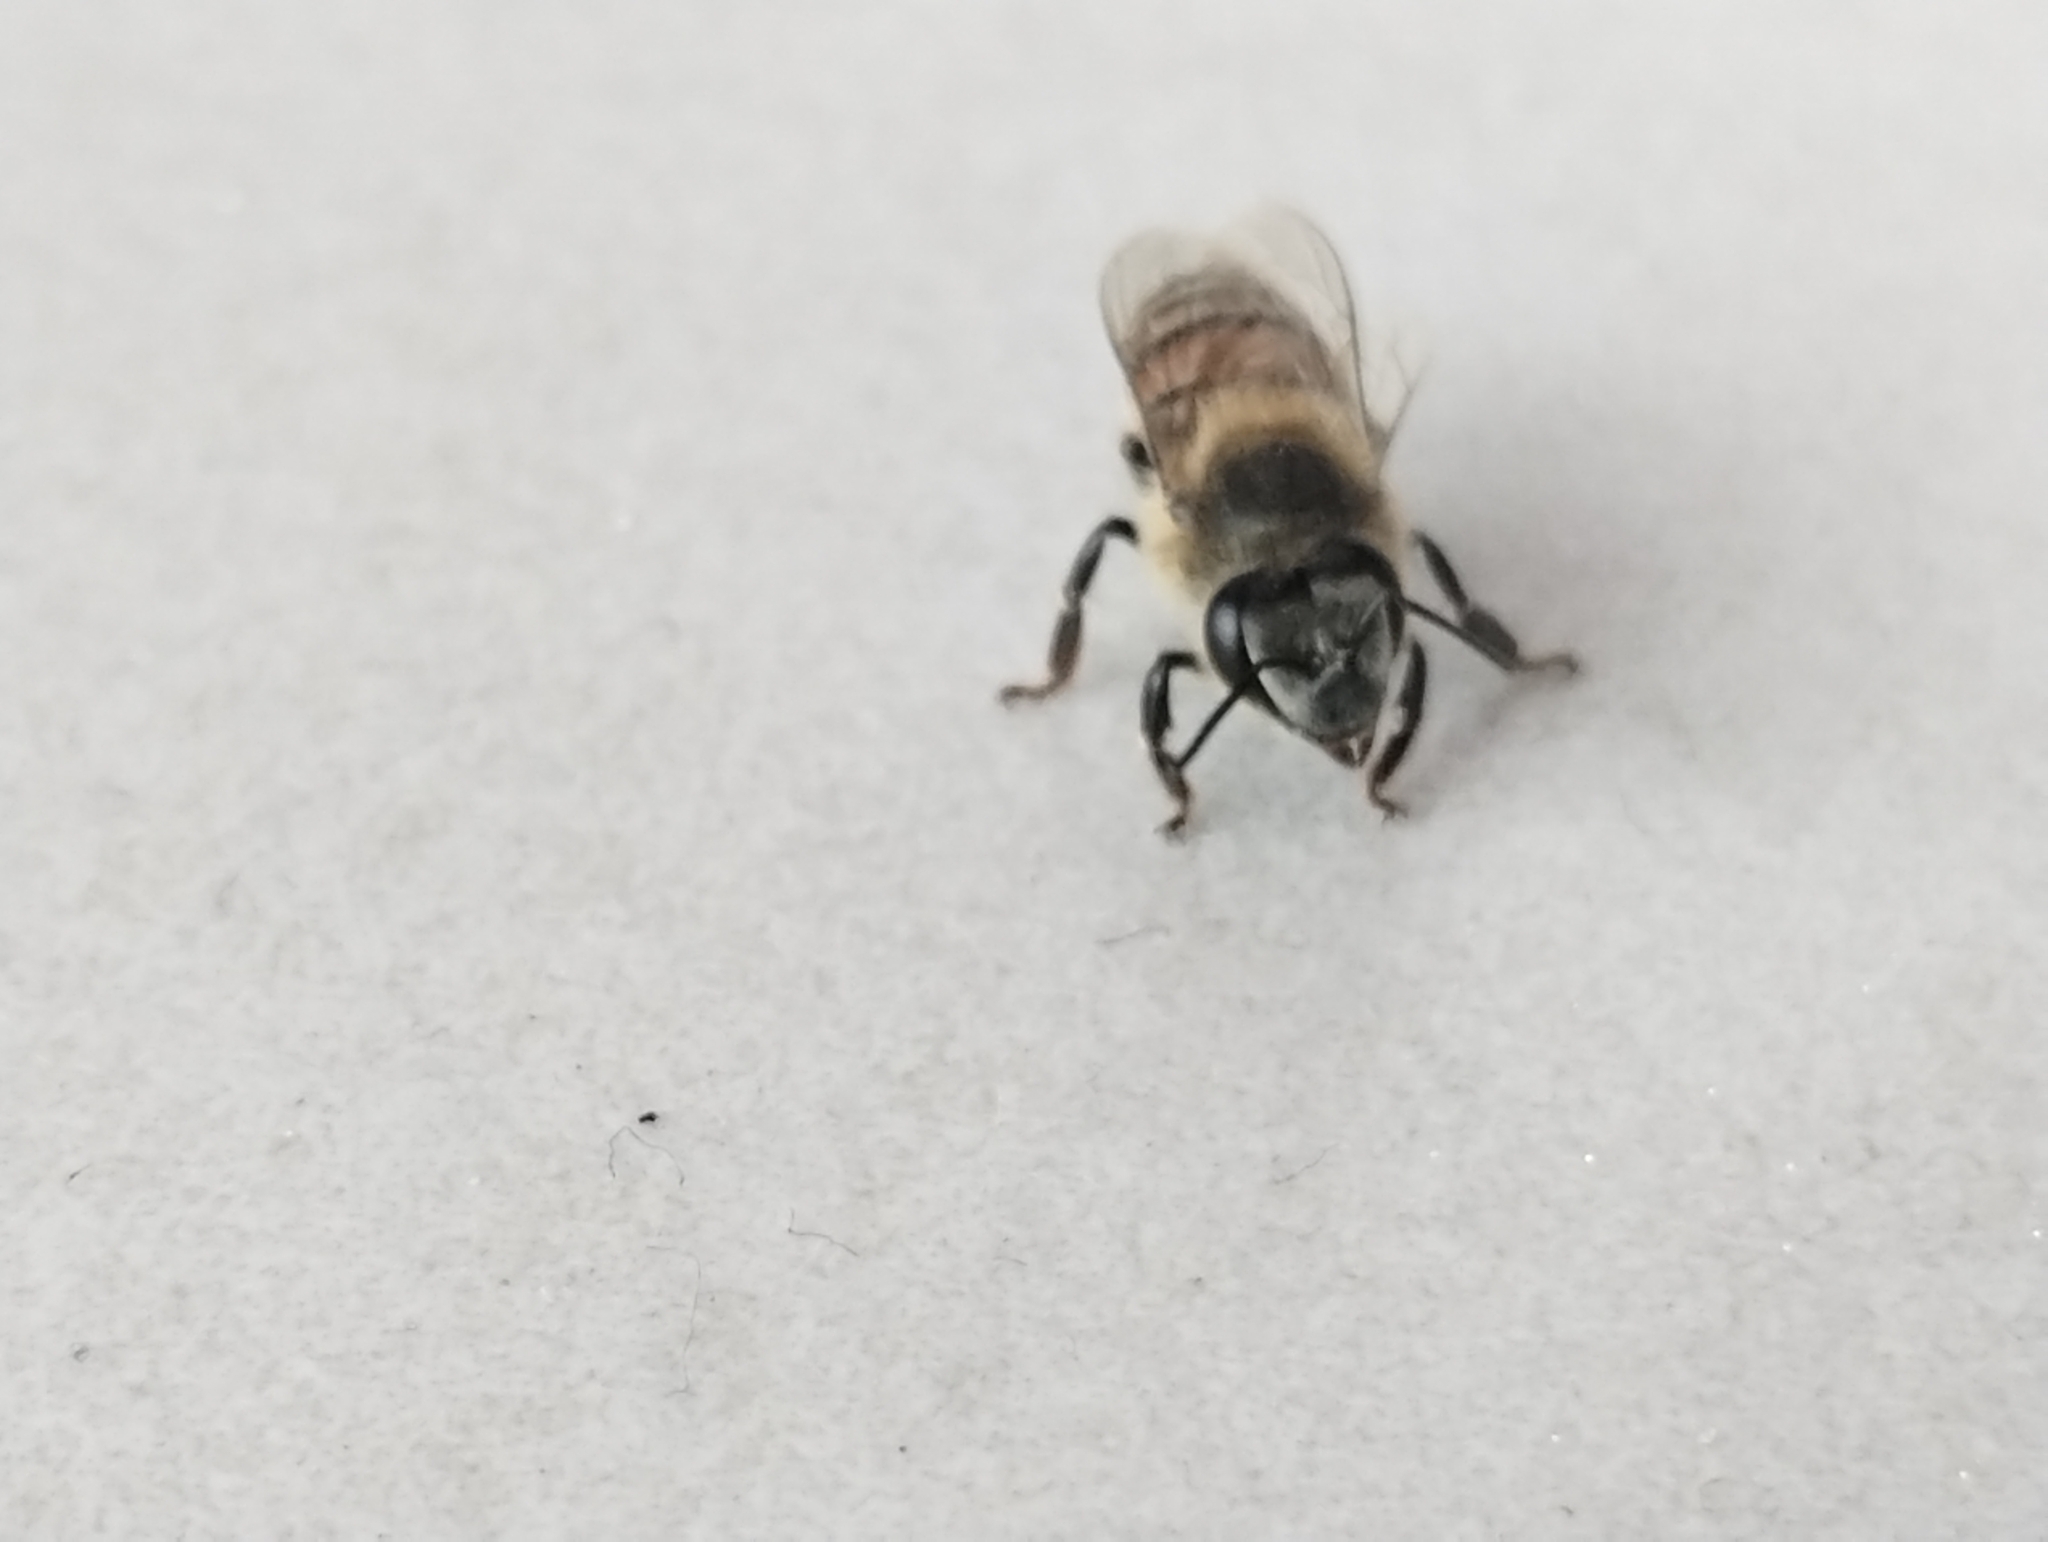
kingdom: Animalia
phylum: Arthropoda
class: Insecta
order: Hymenoptera
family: Apidae
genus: Apis
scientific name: Apis mellifera
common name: Honey bee
